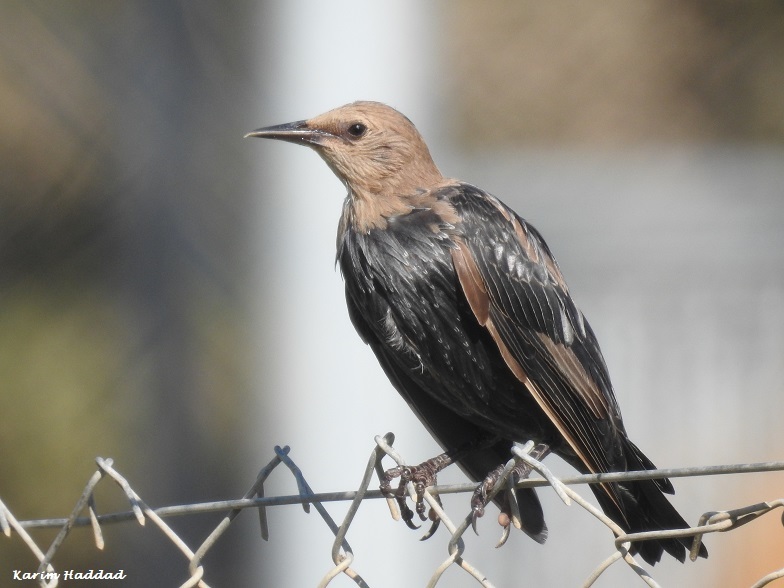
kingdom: Animalia
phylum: Chordata
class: Aves
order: Passeriformes
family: Sturnidae
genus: Sturnus
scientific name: Sturnus unicolor
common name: Spotless starling
